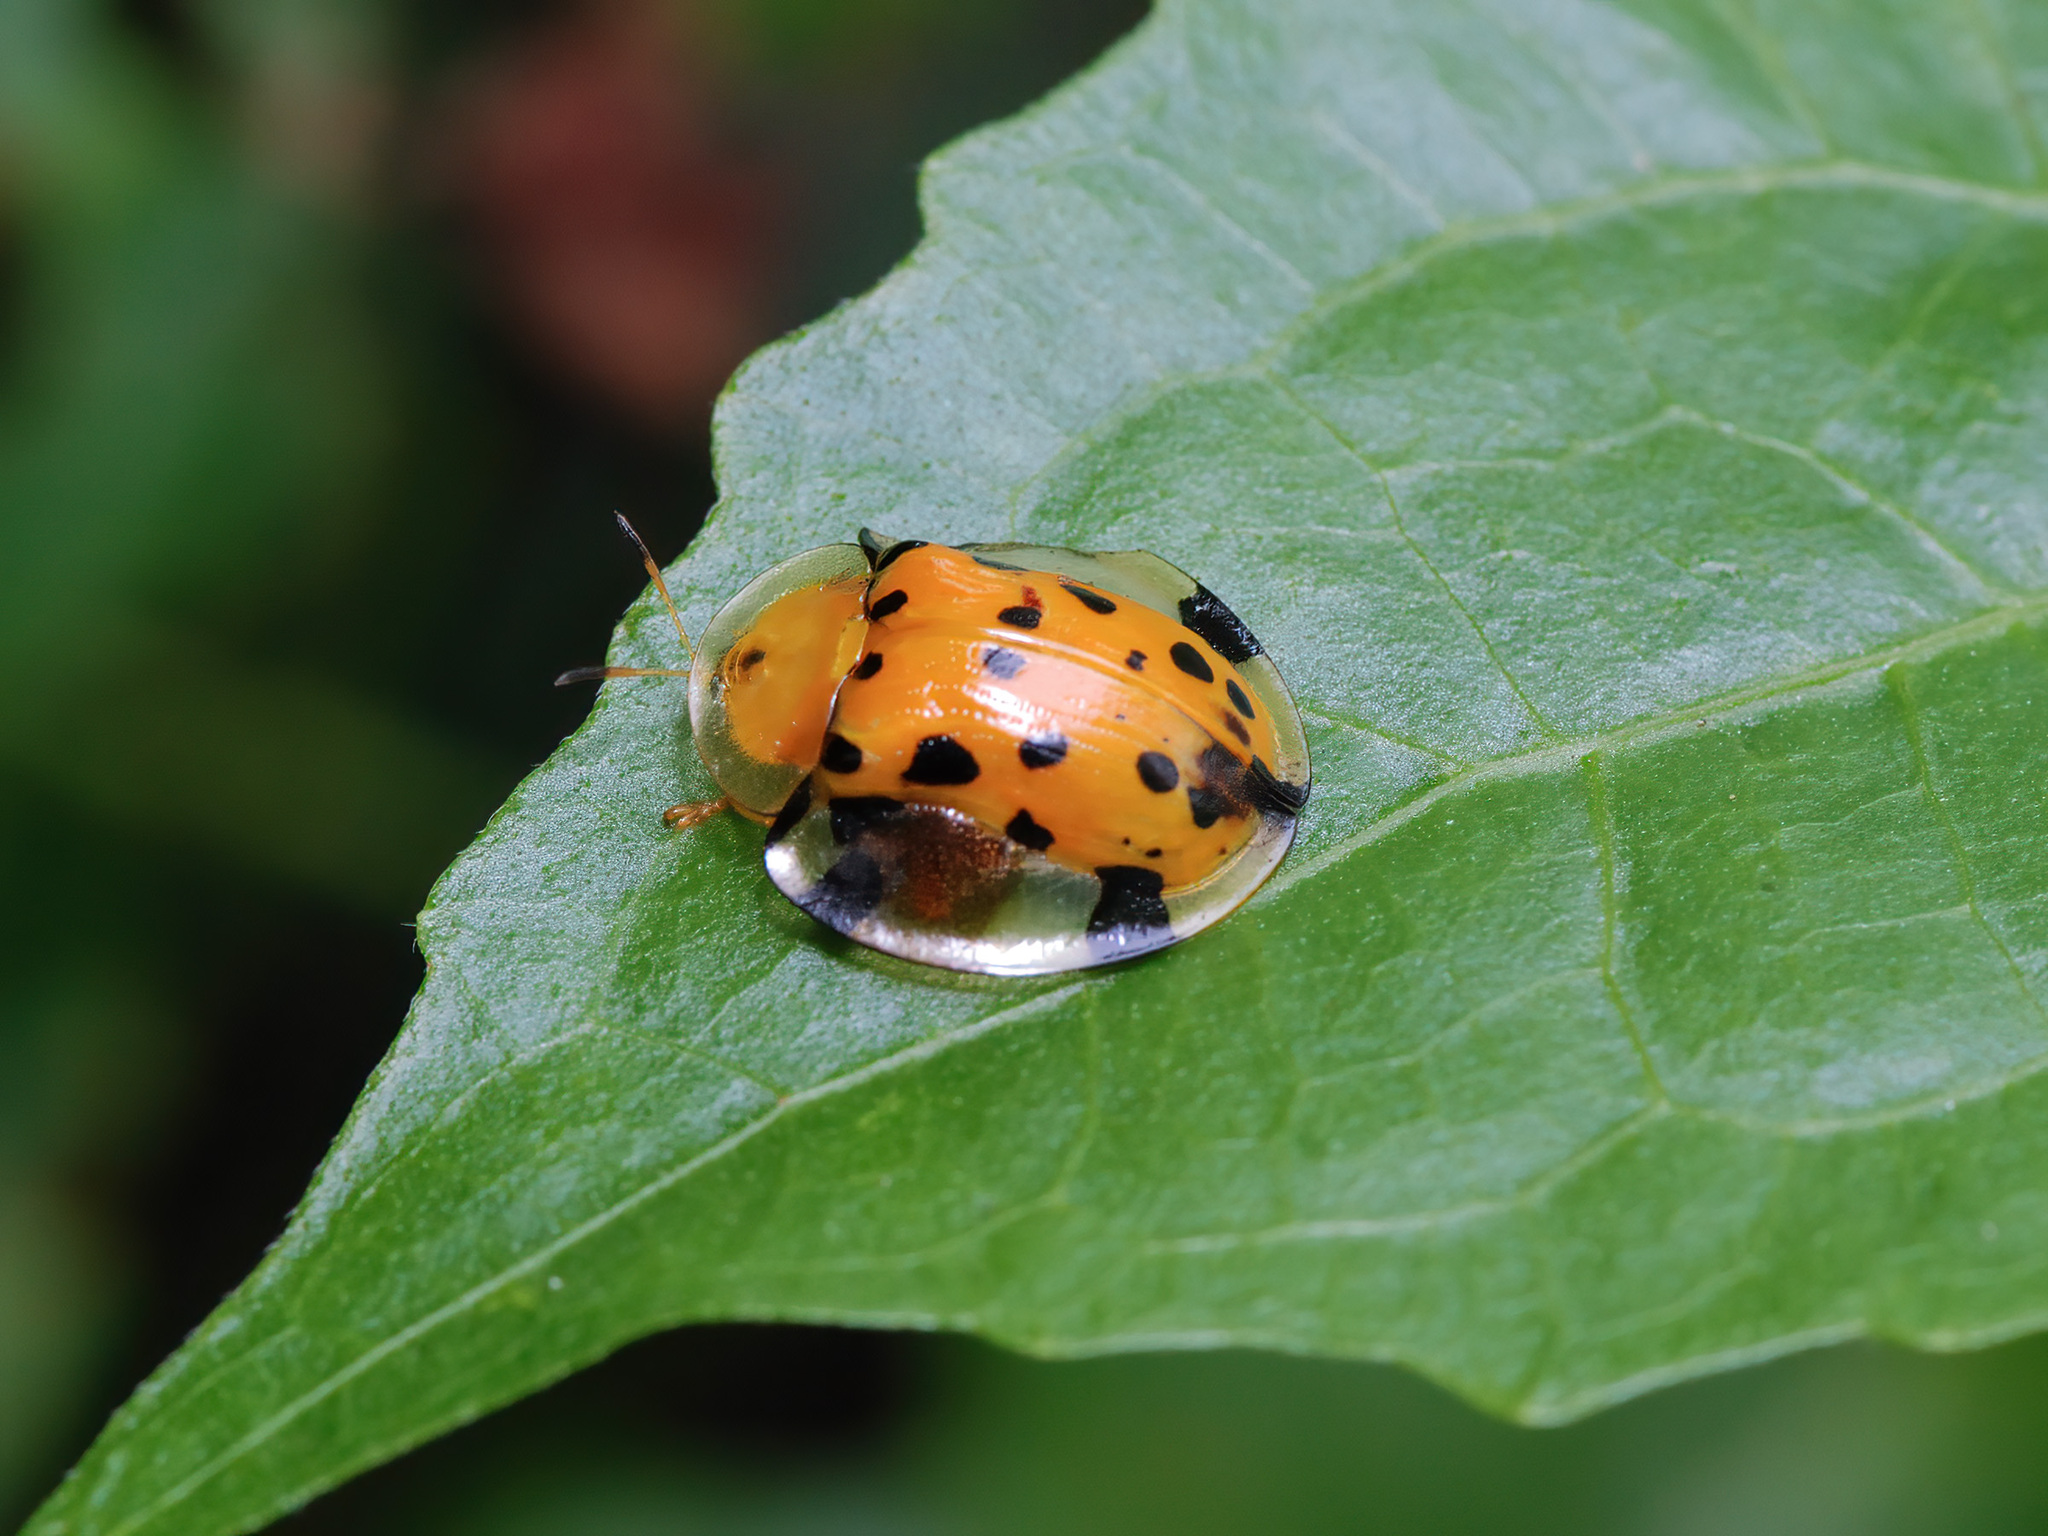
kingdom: Animalia
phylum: Arthropoda
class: Insecta
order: Coleoptera
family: Chrysomelidae
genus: Aspidimorpha
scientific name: Aspidimorpha miliaris
